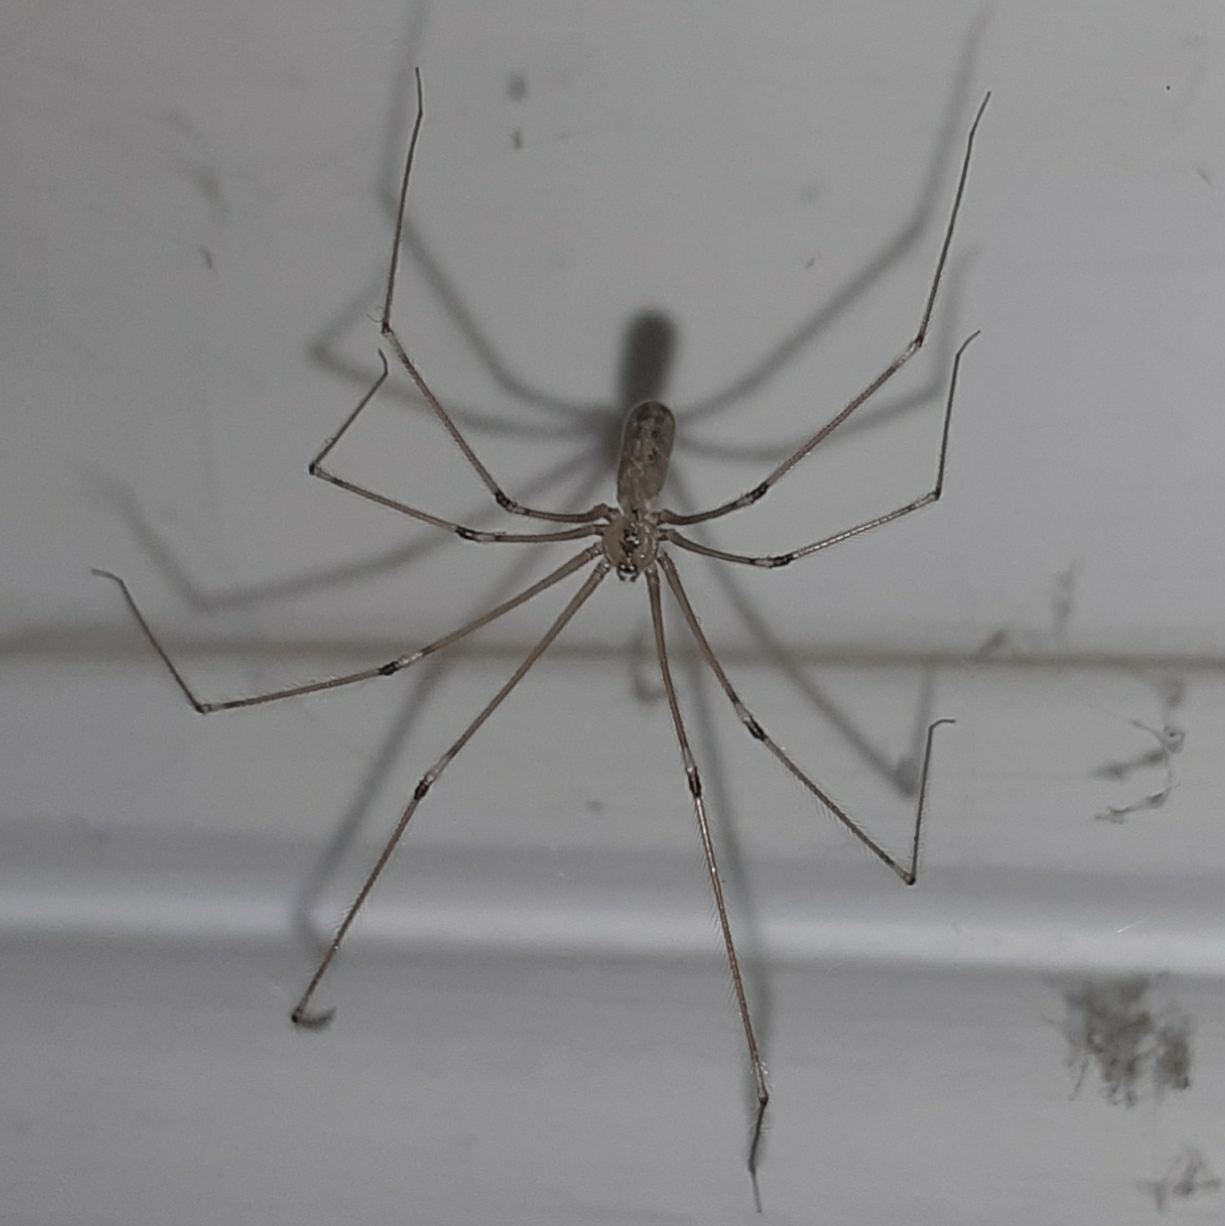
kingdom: Animalia
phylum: Arthropoda
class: Arachnida
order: Araneae
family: Pholcidae
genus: Pholcus
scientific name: Pholcus phalangioides
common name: Longbodied cellar spider
